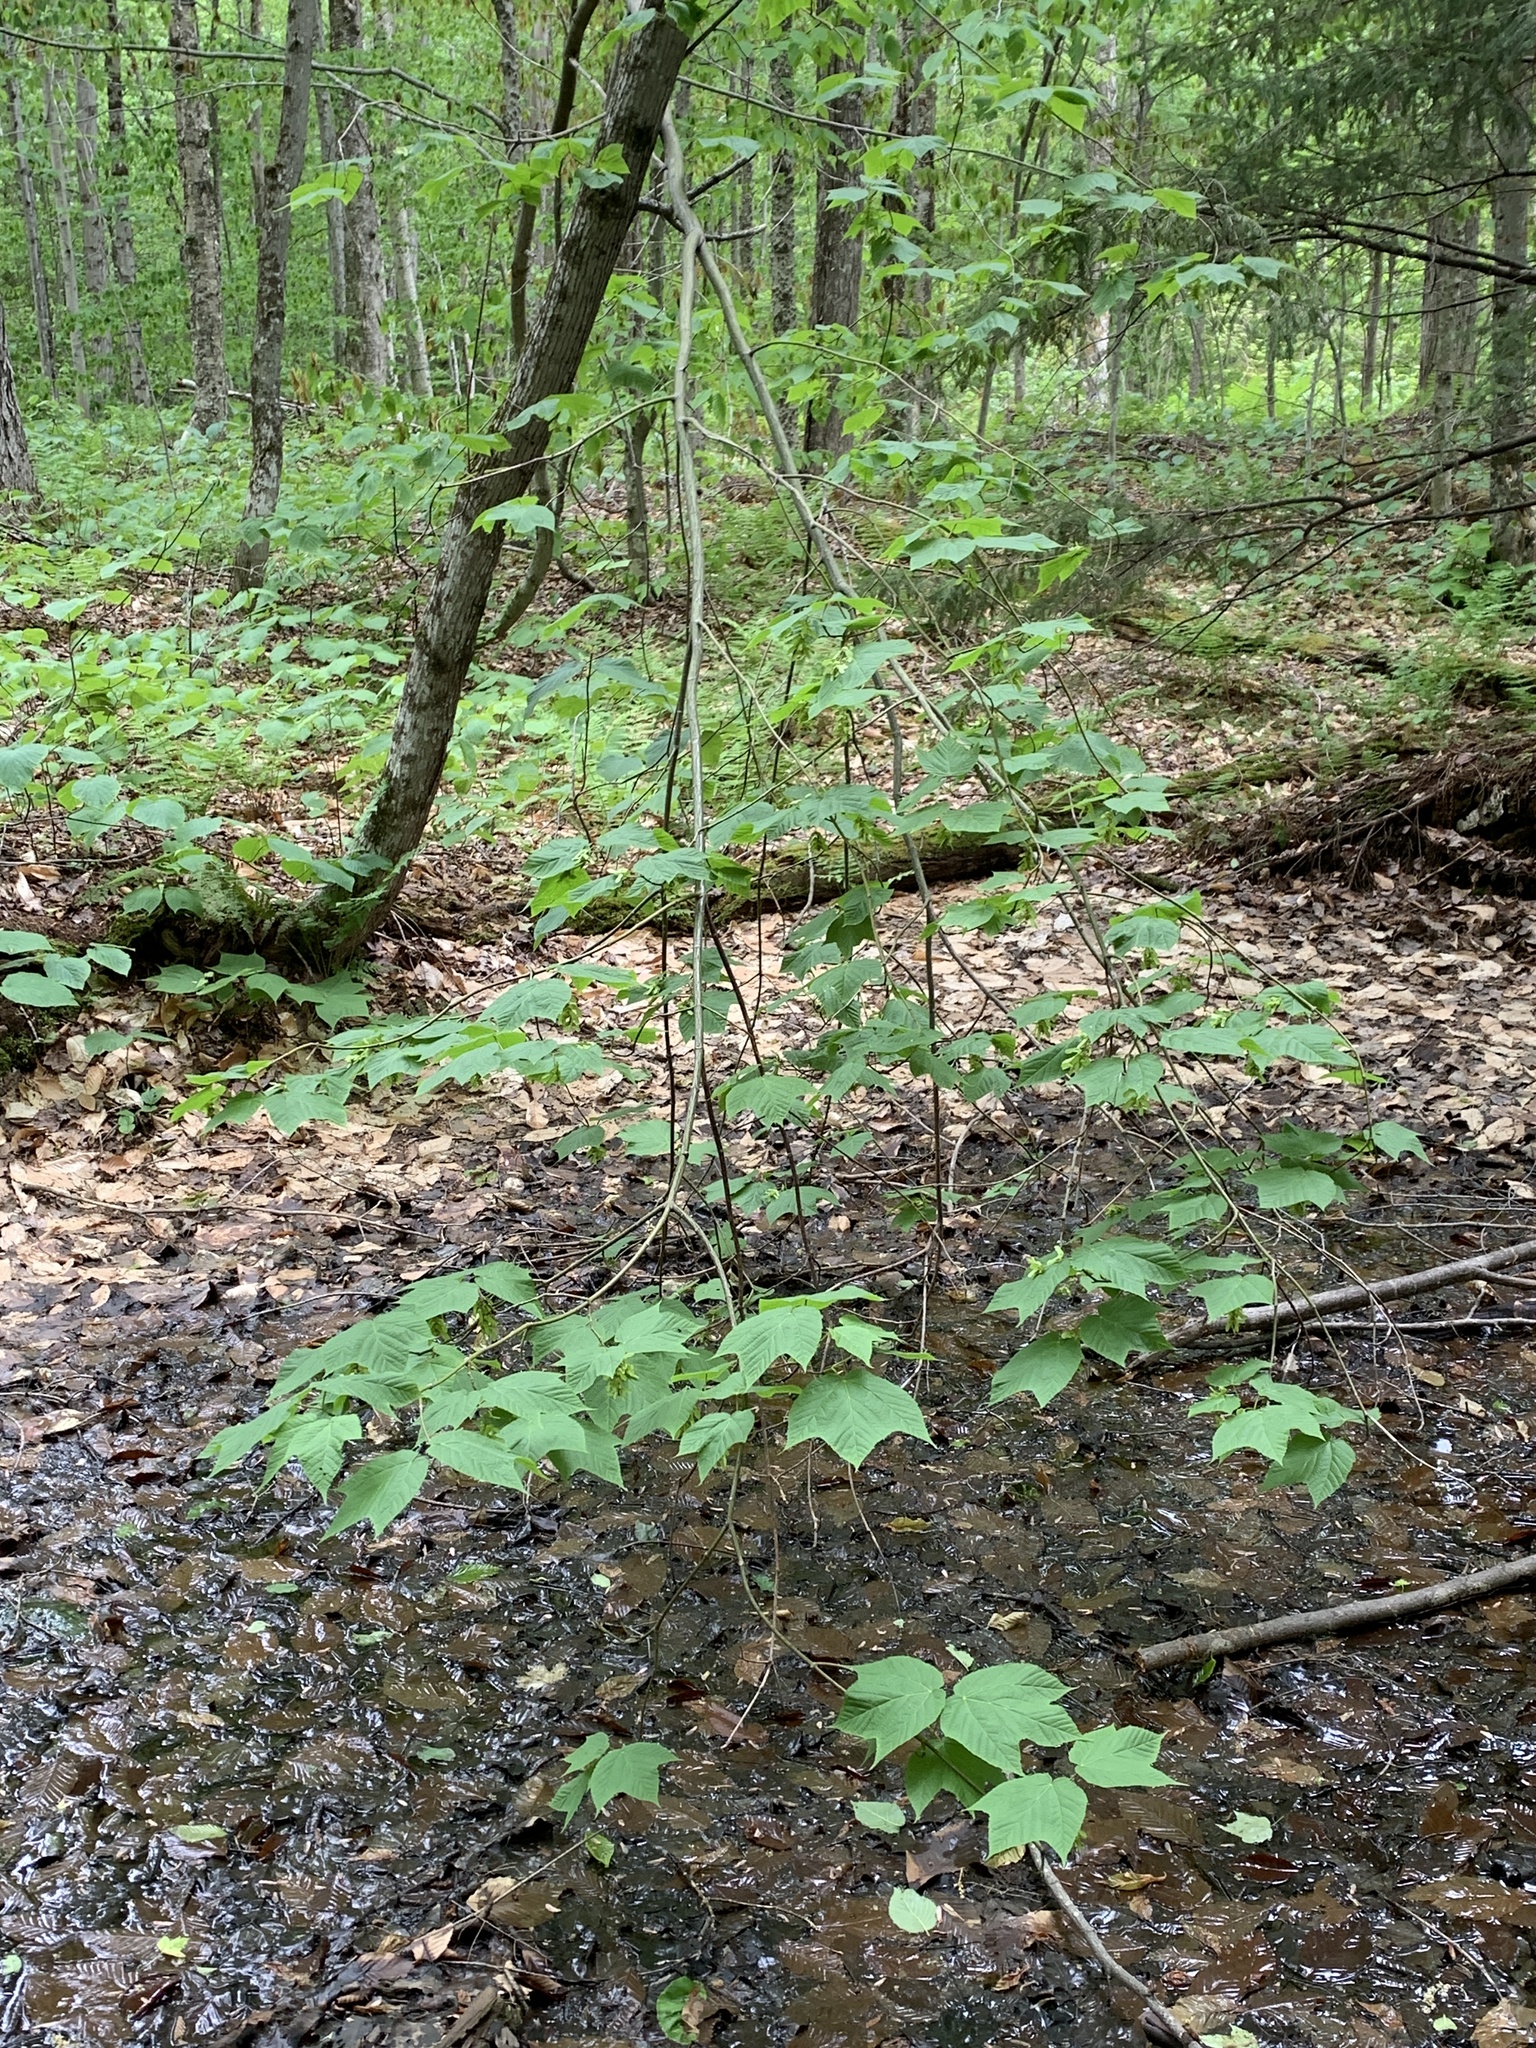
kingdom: Plantae
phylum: Tracheophyta
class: Magnoliopsida
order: Sapindales
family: Sapindaceae
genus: Acer
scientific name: Acer pensylvanicum
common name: Moosewood
